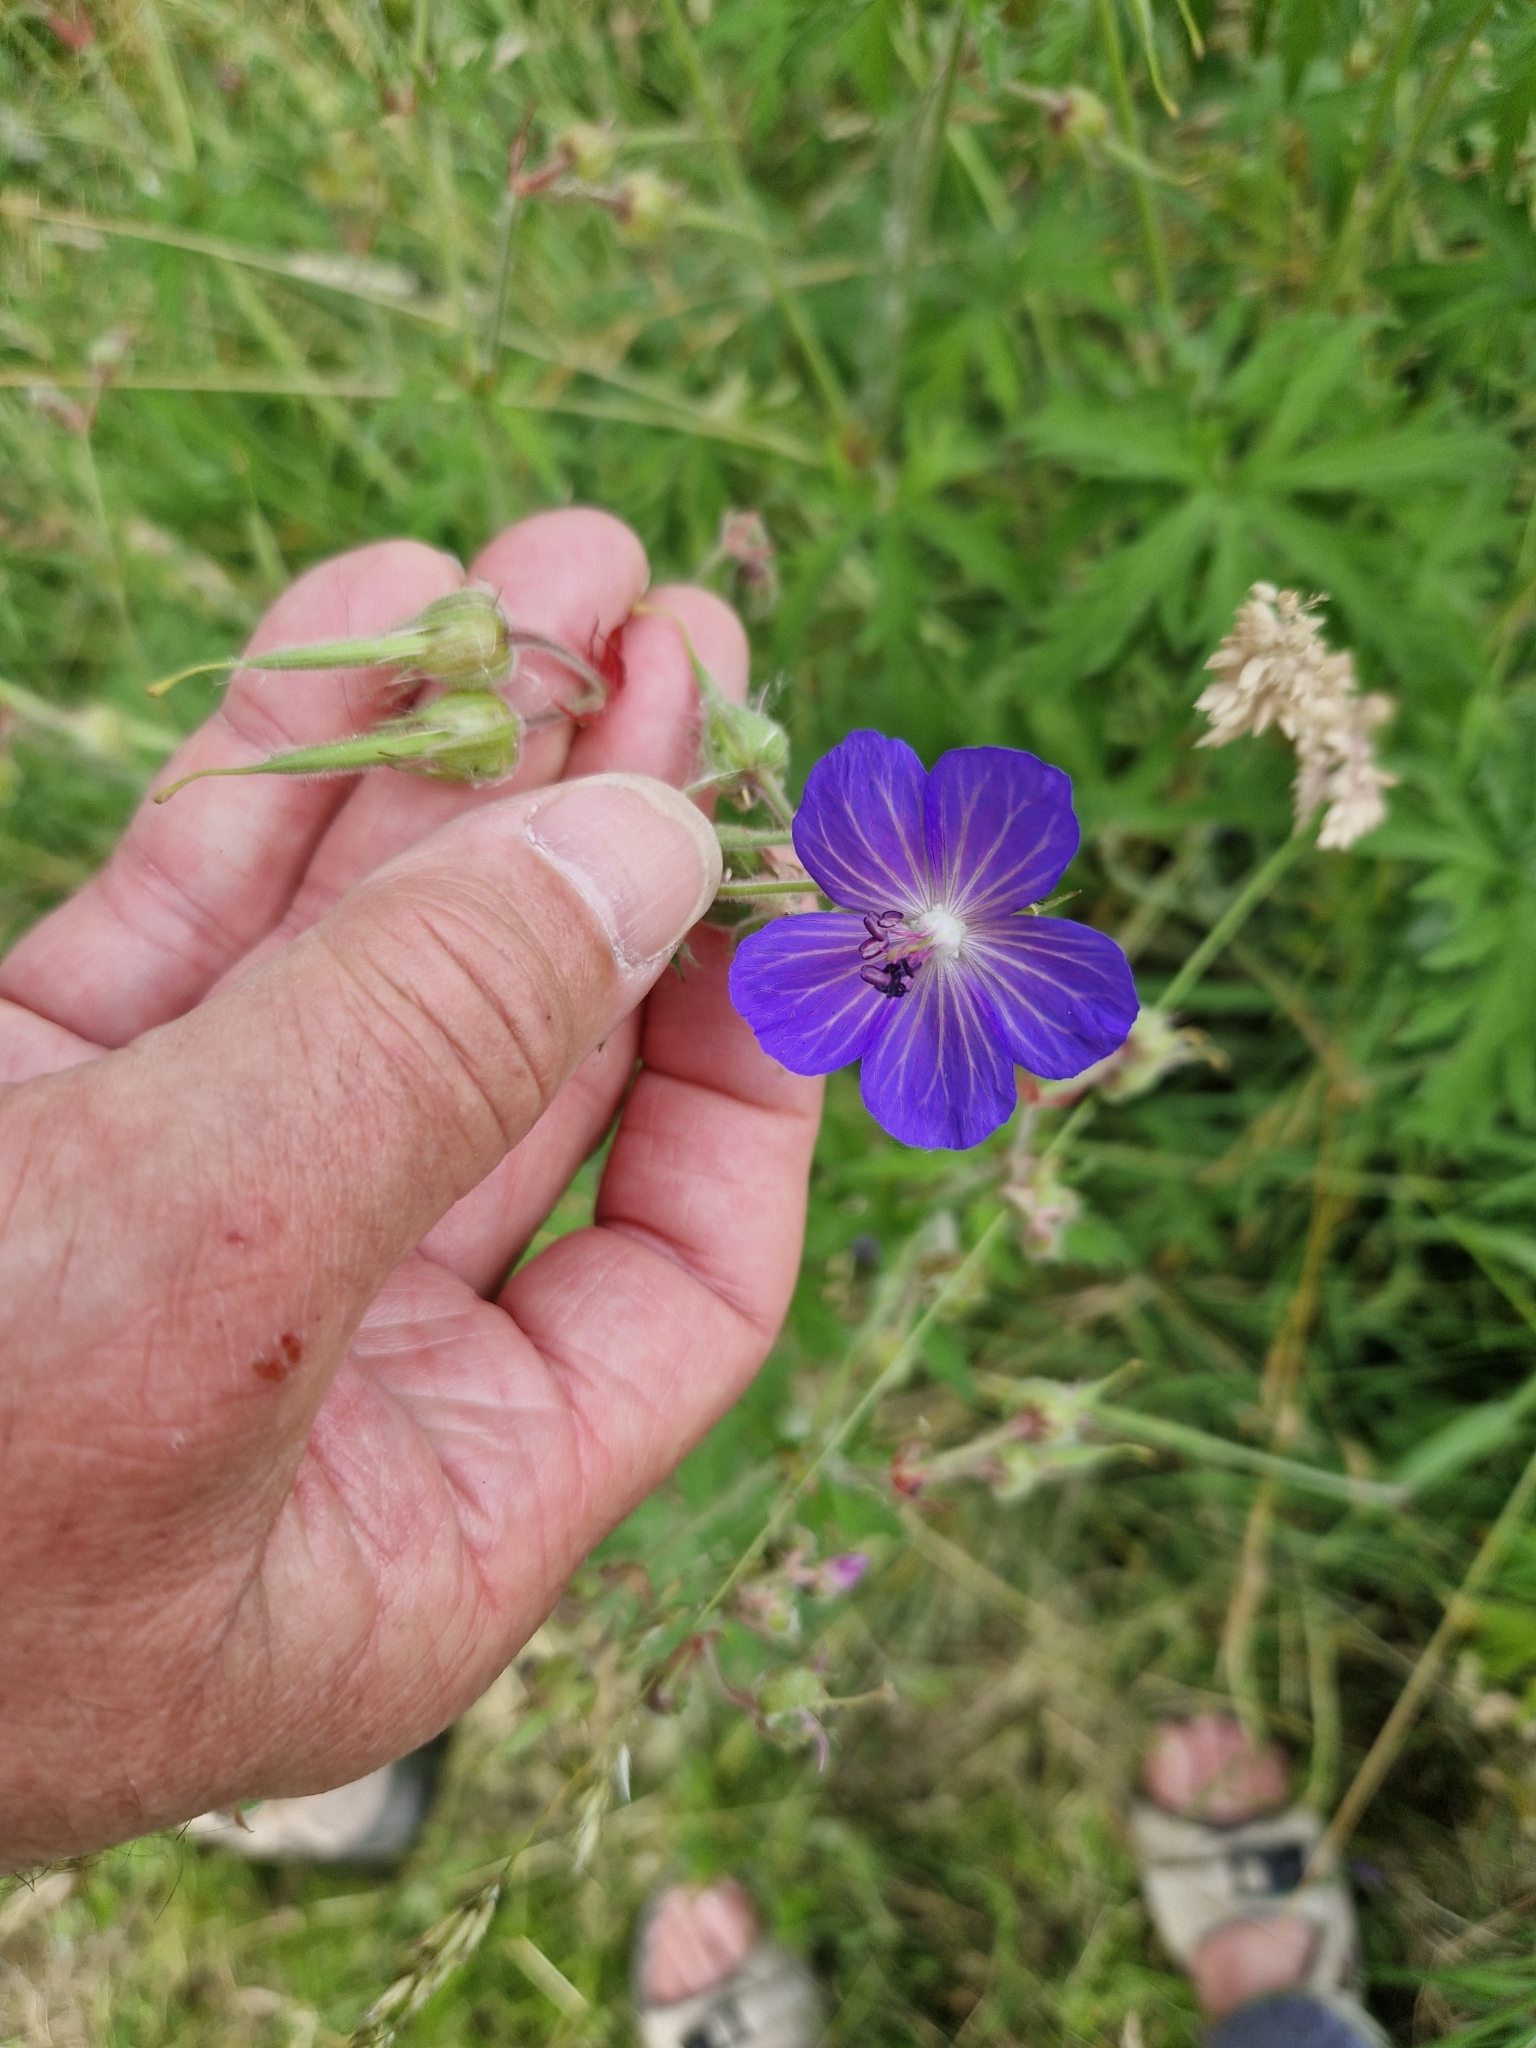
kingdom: Plantae
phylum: Tracheophyta
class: Magnoliopsida
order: Geraniales
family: Geraniaceae
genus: Geranium
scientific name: Geranium pratense
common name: Meadow crane's-bill
